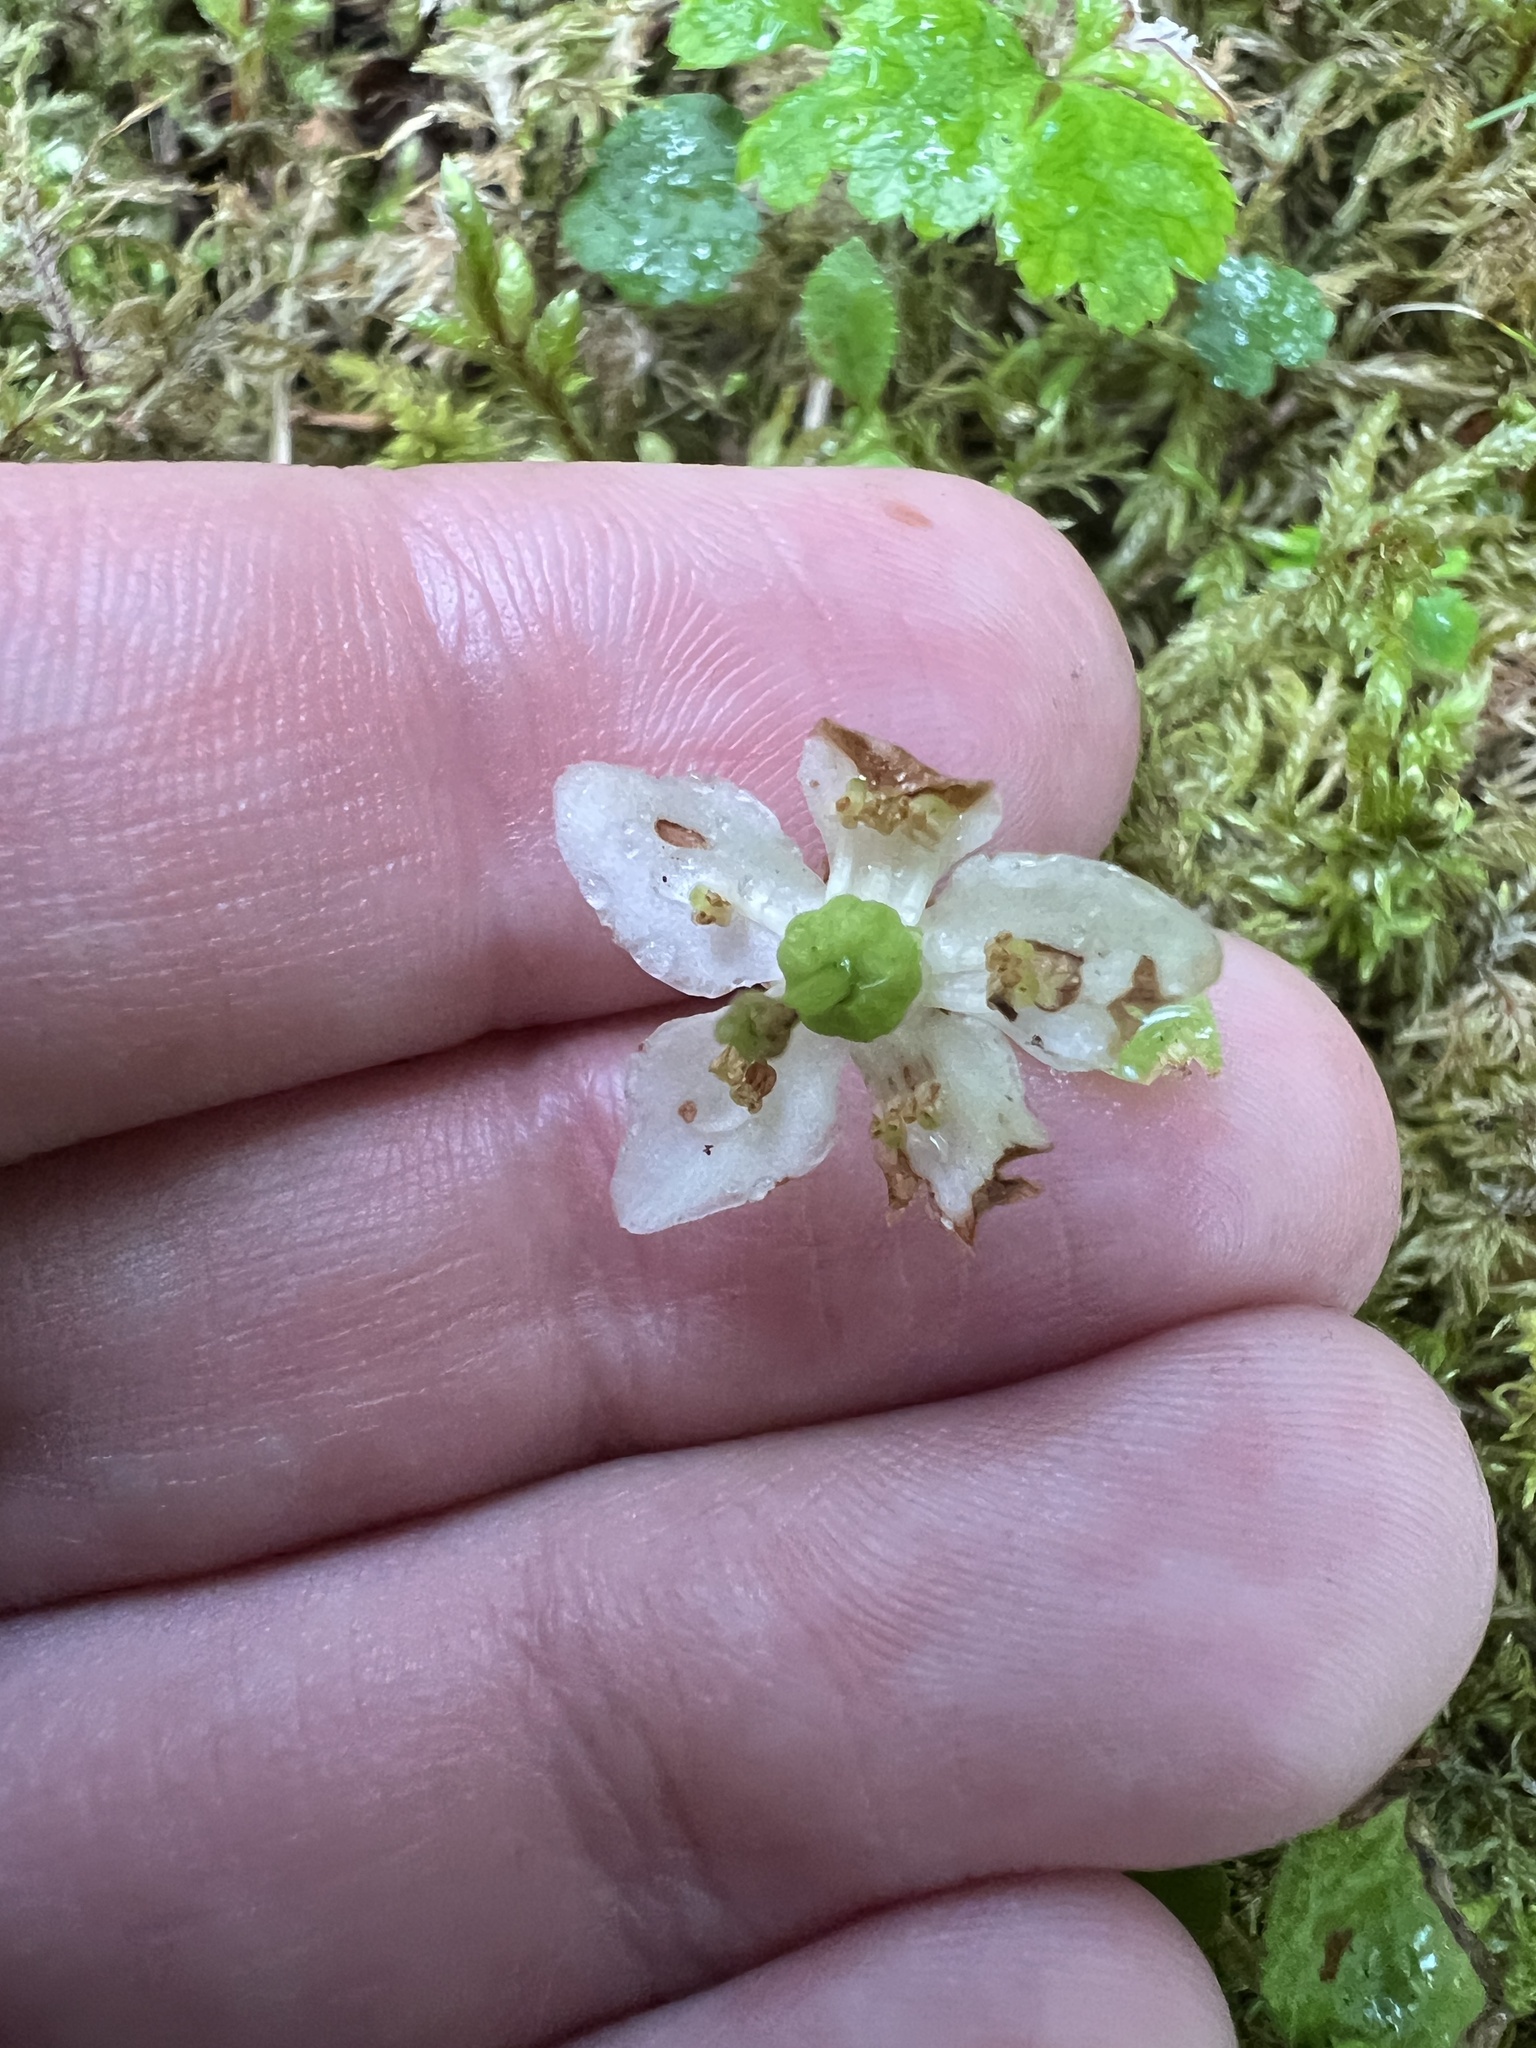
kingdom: Plantae
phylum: Tracheophyta
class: Magnoliopsida
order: Ericales
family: Ericaceae
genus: Moneses
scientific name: Moneses uniflora
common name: One-flowered wintergreen
